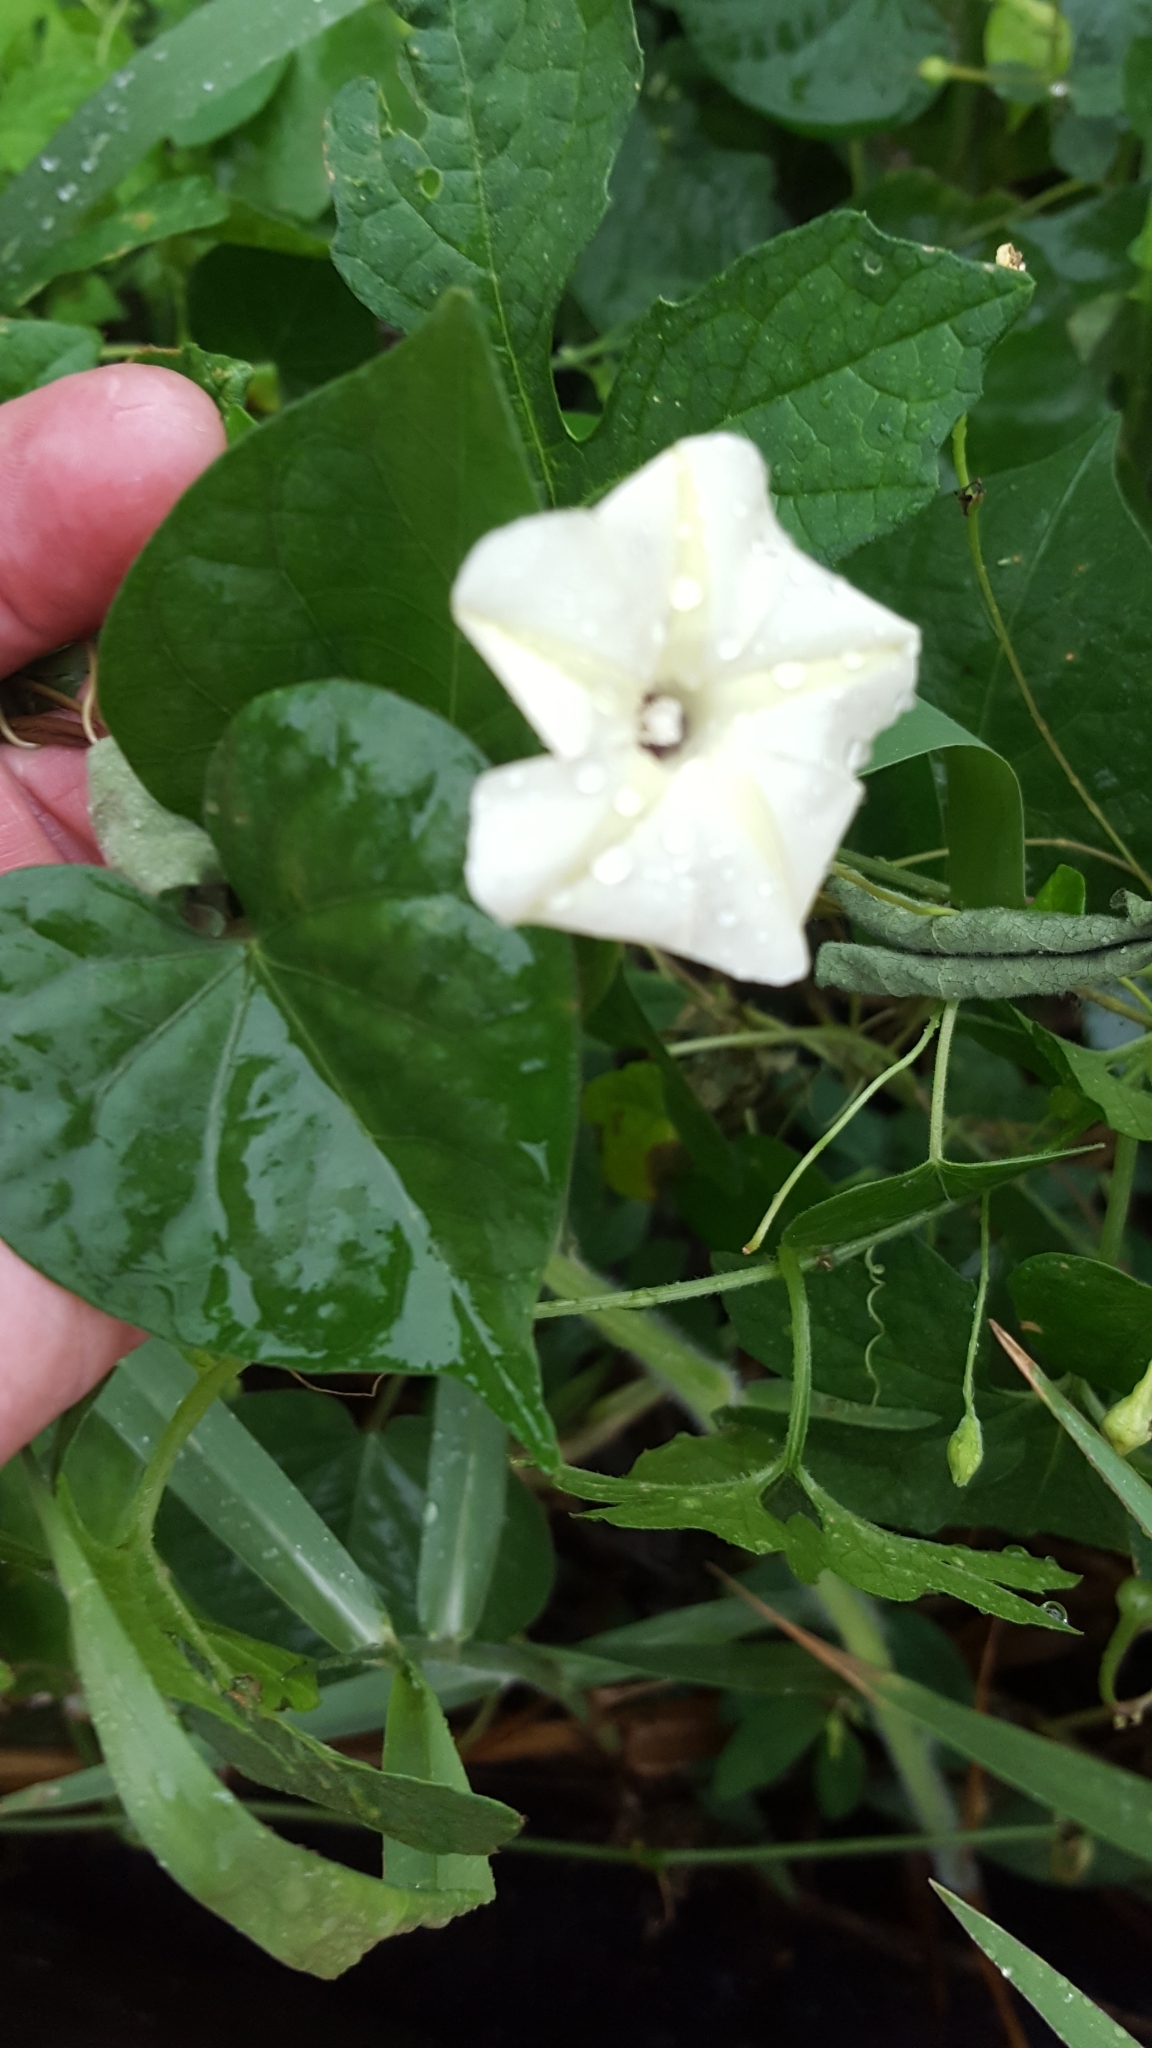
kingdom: Plantae
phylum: Tracheophyta
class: Magnoliopsida
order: Solanales
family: Convolvulaceae
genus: Ipomoea
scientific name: Ipomoea obscura
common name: Obscure morning-glory
